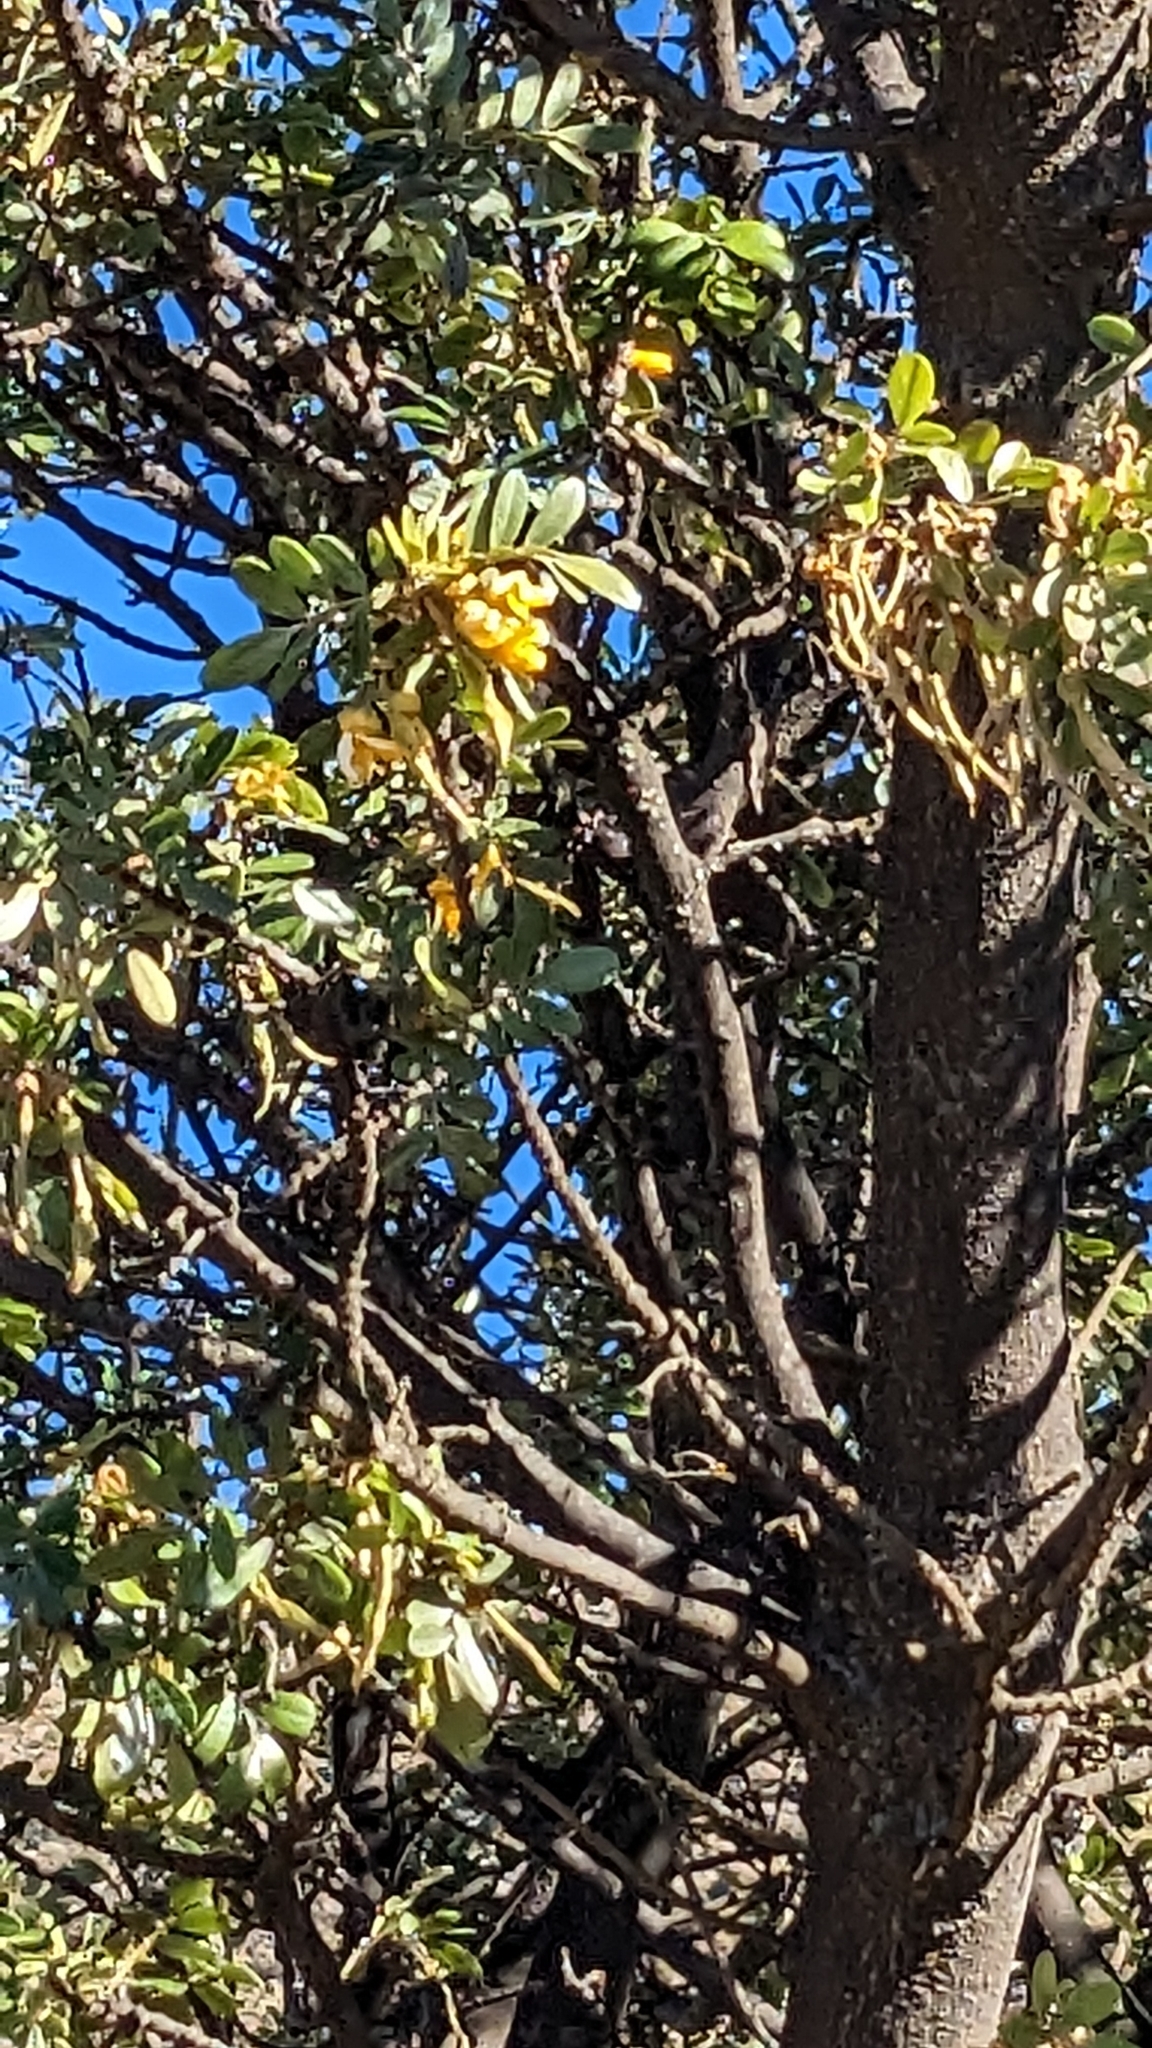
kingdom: Plantae
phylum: Tracheophyta
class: Magnoliopsida
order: Fabales
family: Fabaceae
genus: Sophora
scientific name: Sophora chrysophylla
